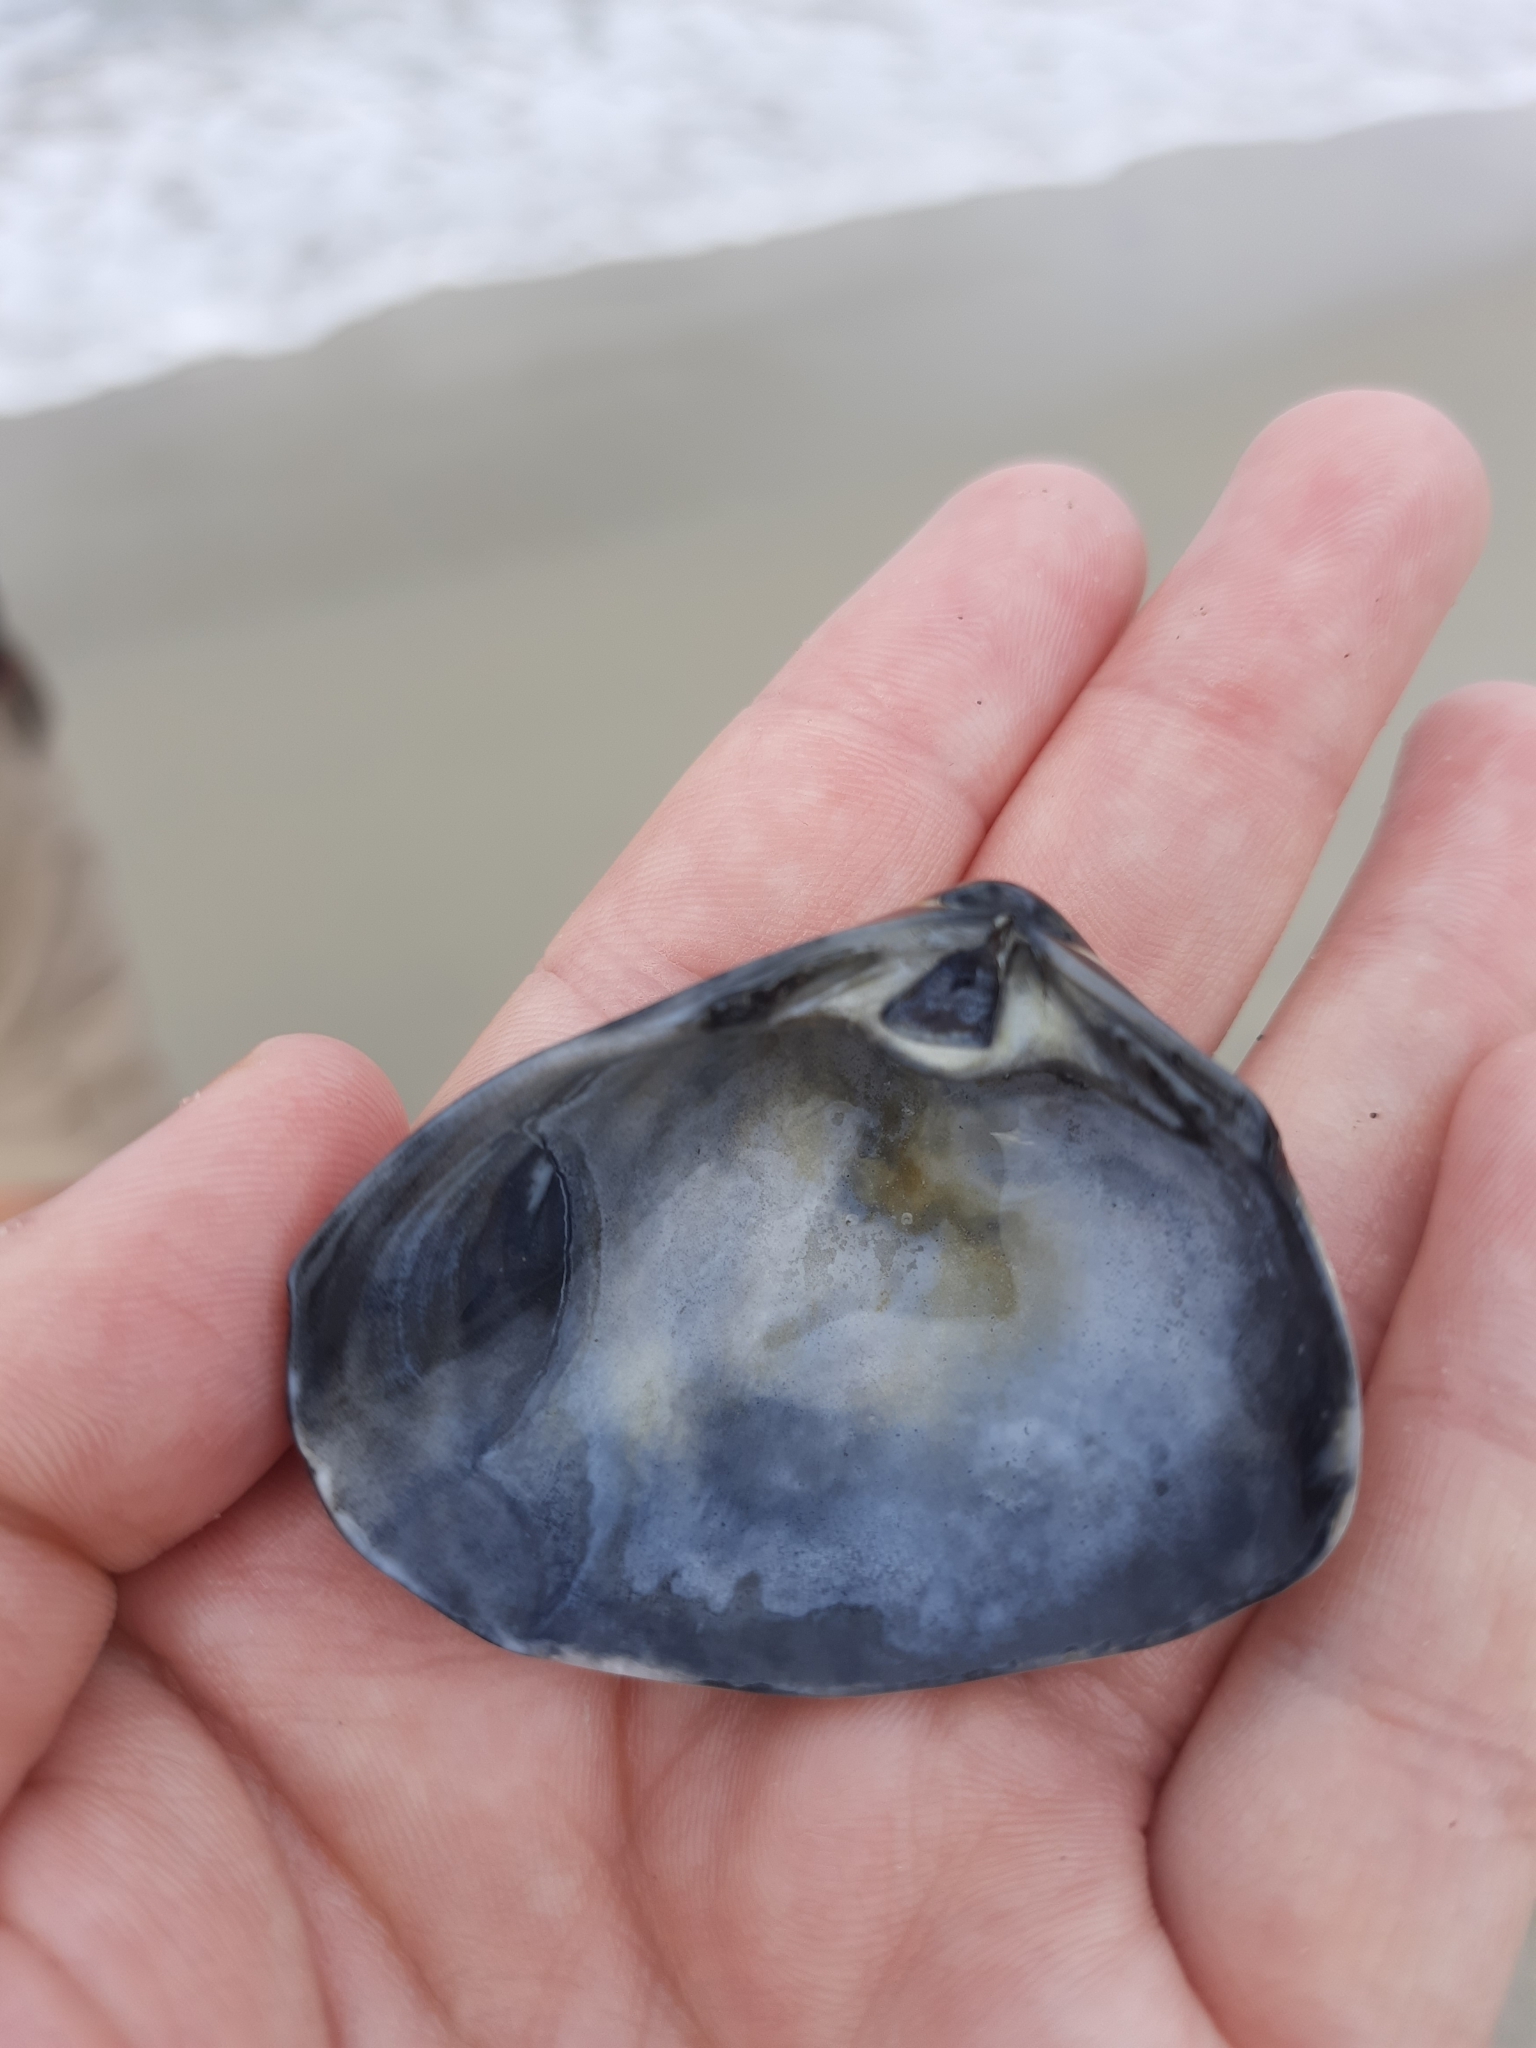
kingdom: Animalia
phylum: Mollusca
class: Bivalvia
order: Venerida
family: Mactridae
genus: Spisula
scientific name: Spisula murchisoni
